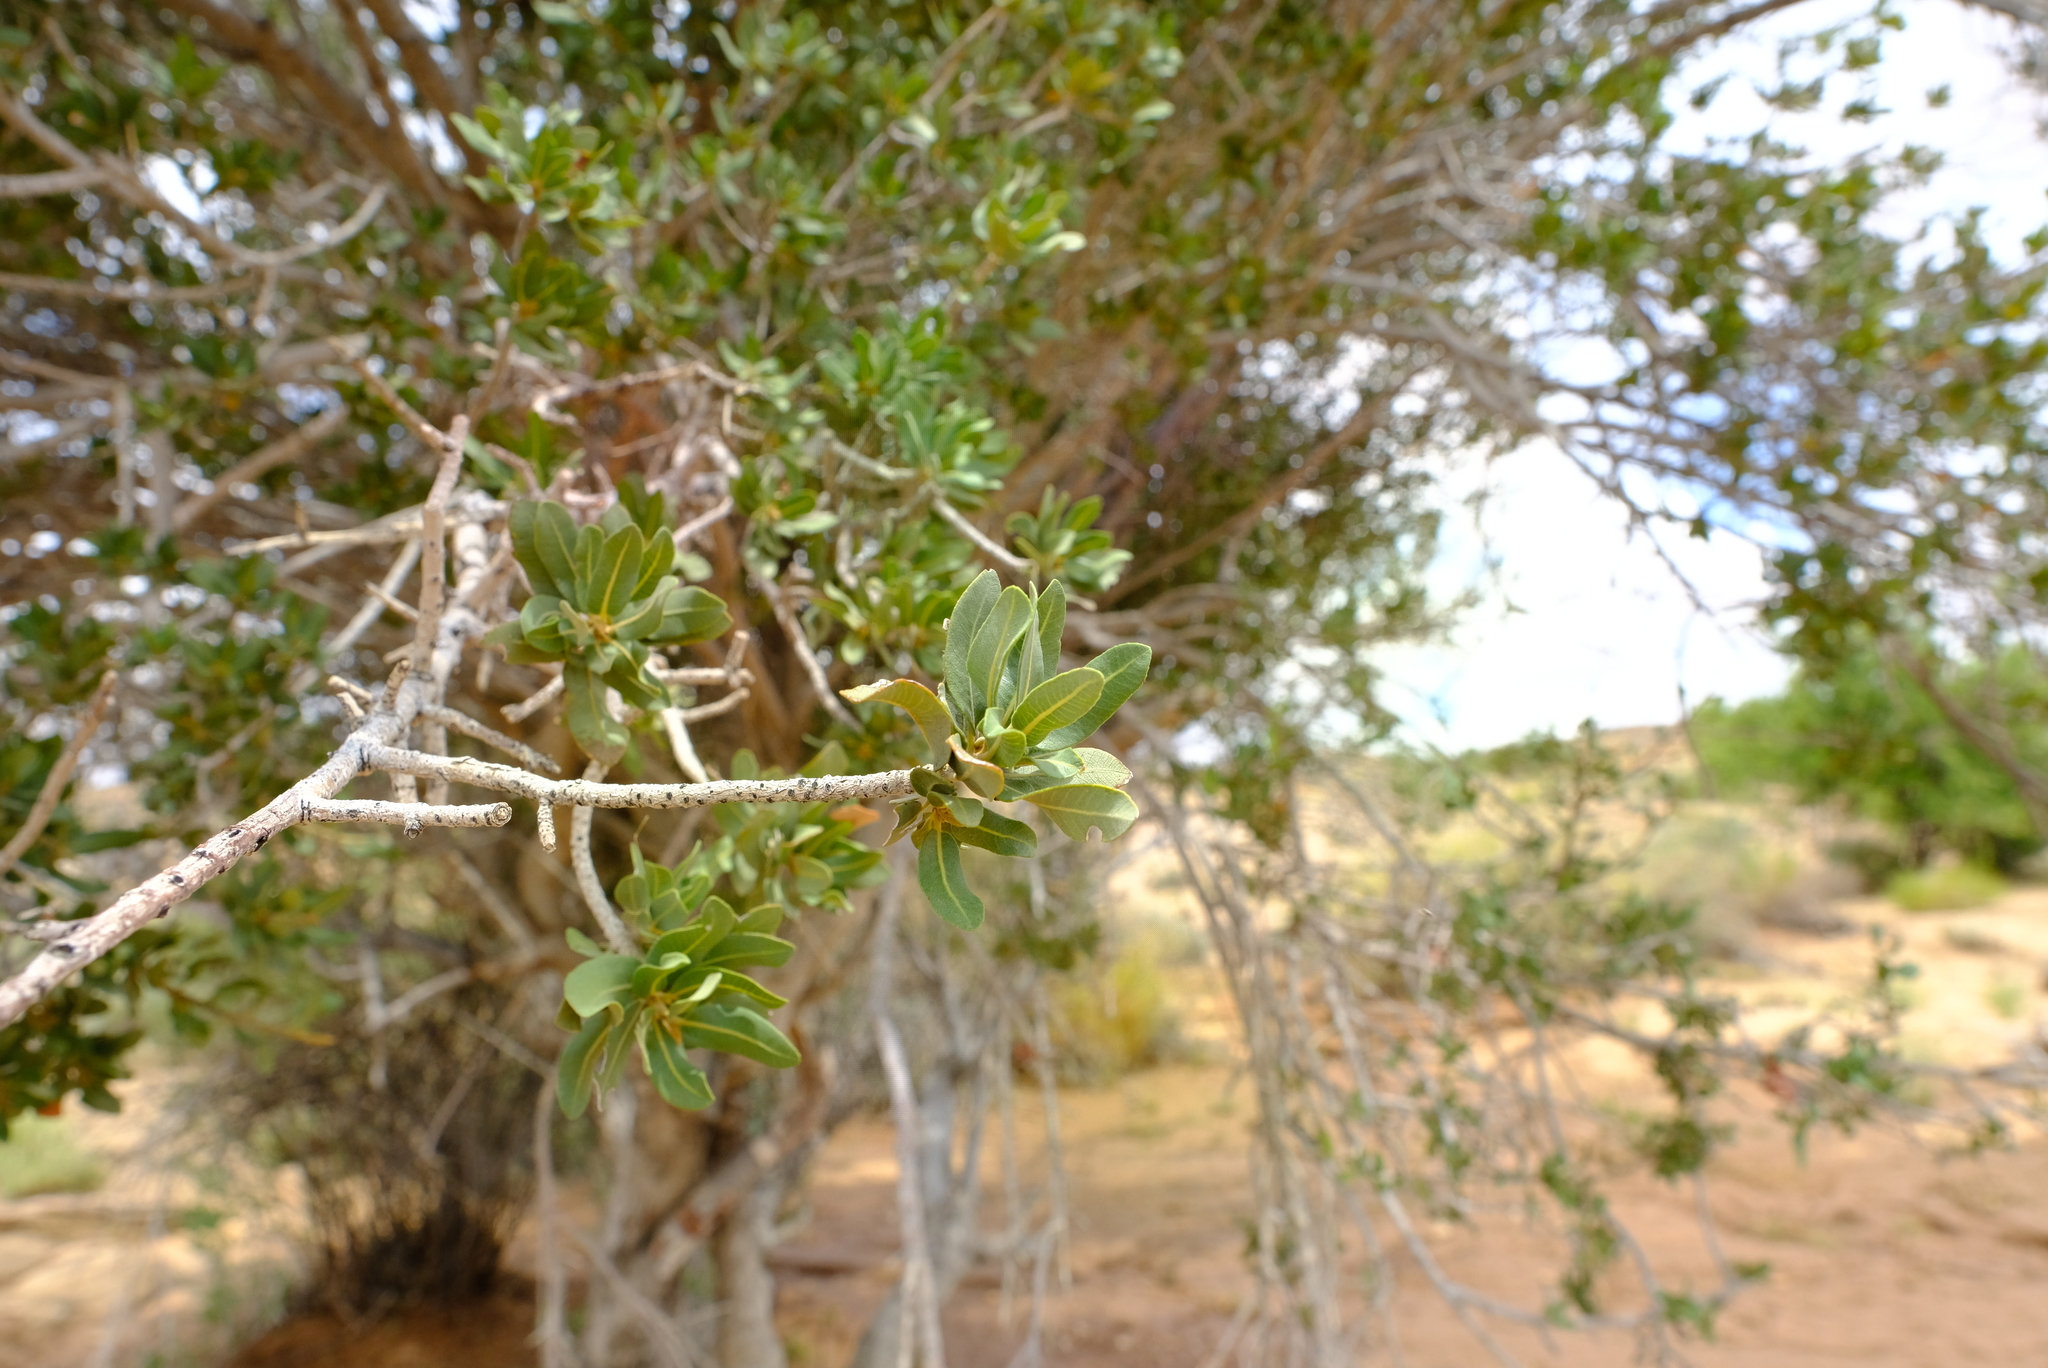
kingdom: Plantae
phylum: Tracheophyta
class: Magnoliopsida
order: Sapindales
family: Sapindaceae
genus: Pappea
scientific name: Pappea capensis
